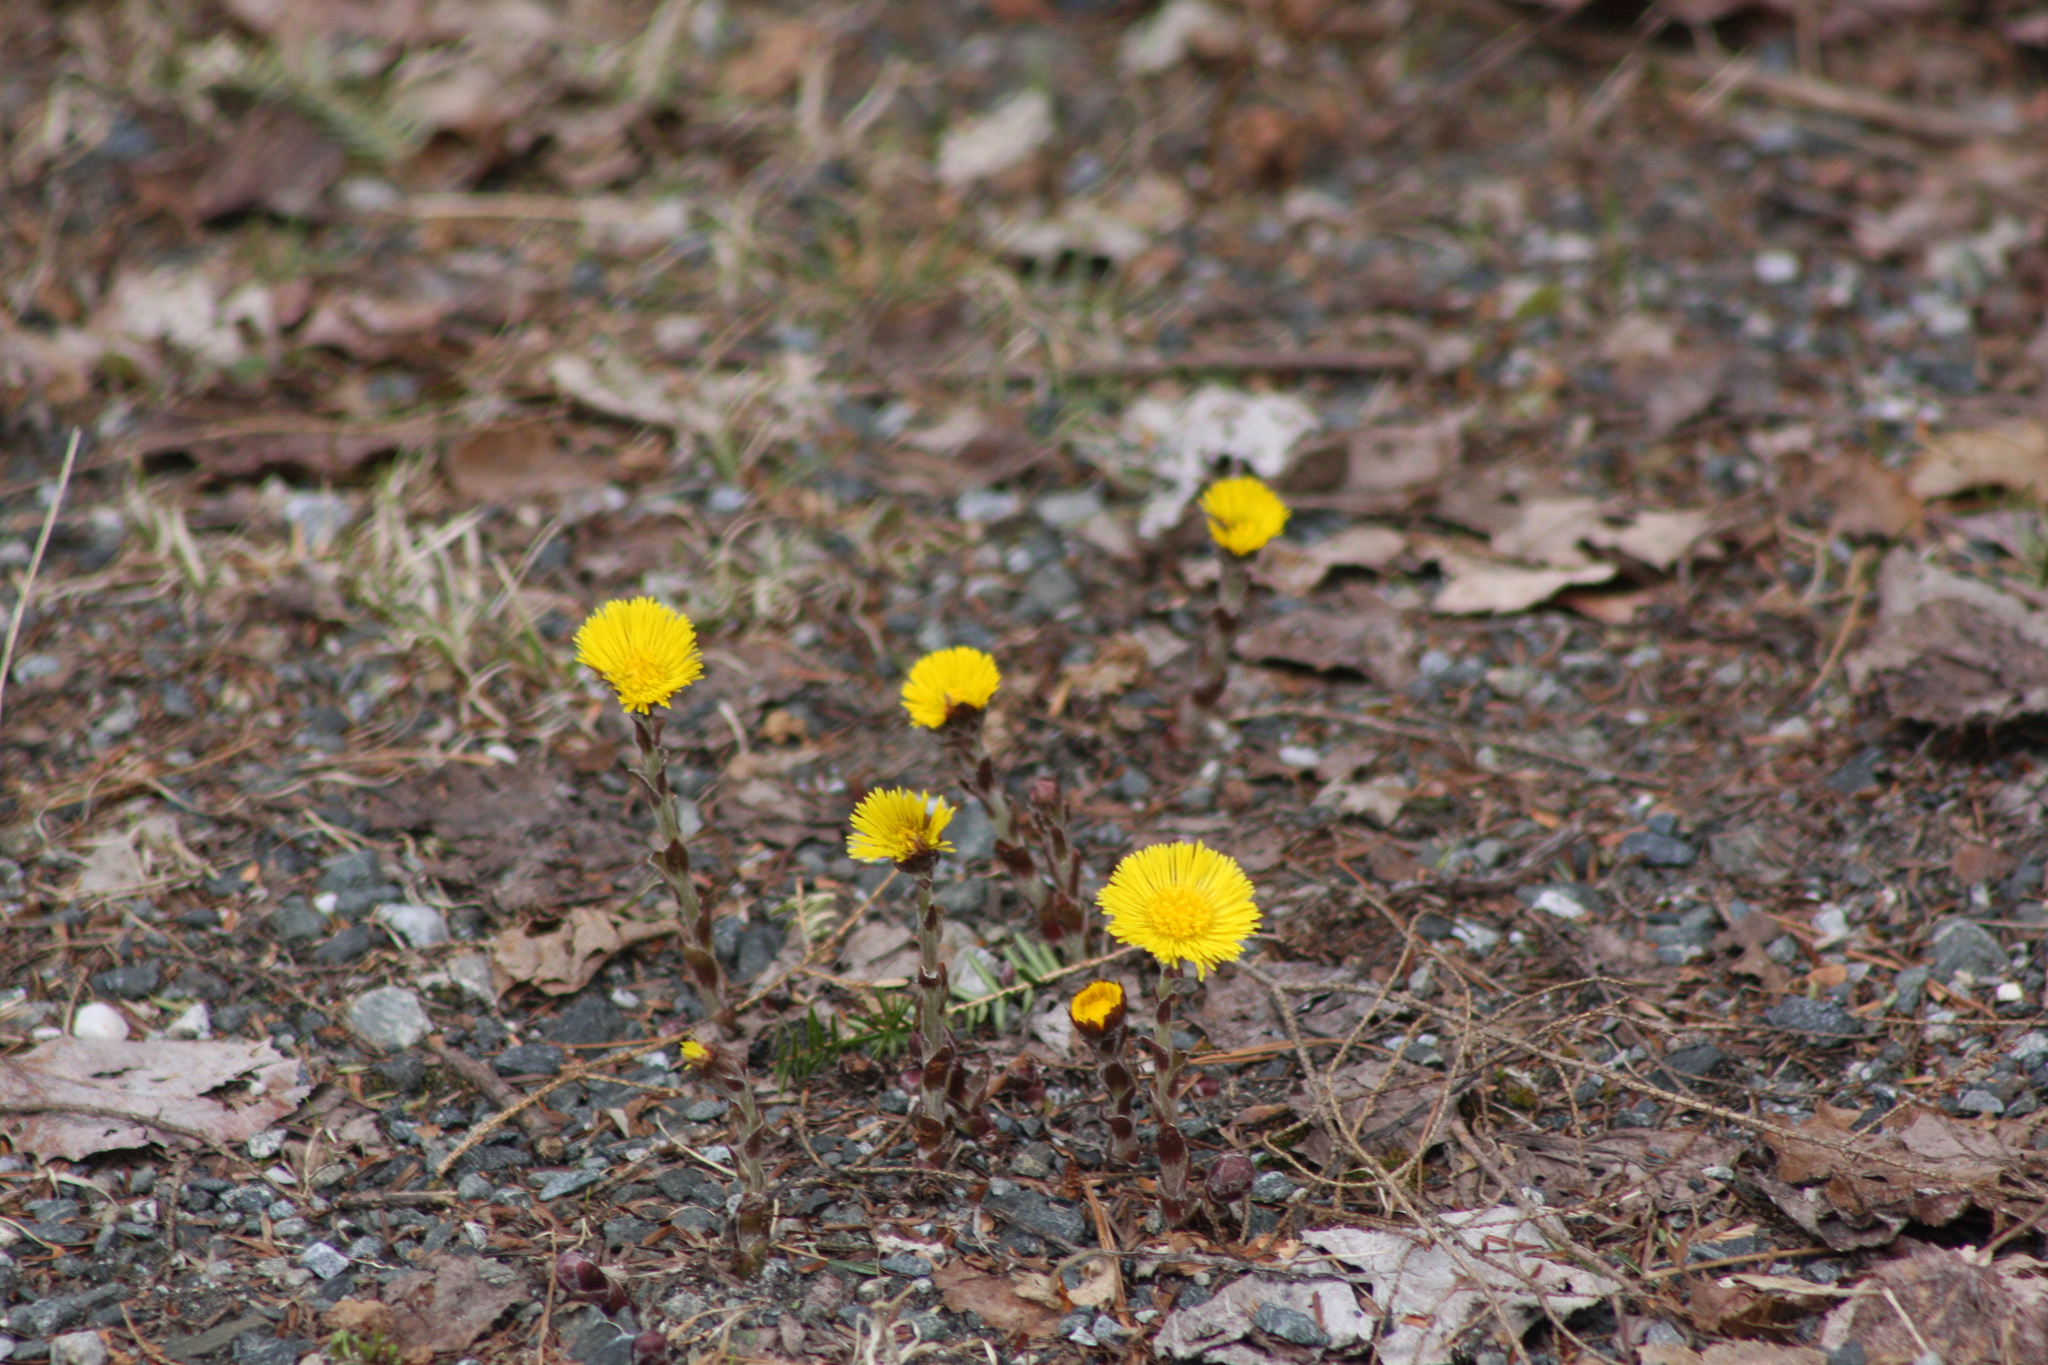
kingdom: Plantae
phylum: Tracheophyta
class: Magnoliopsida
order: Asterales
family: Asteraceae
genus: Tussilago
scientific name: Tussilago farfara
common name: Coltsfoot
